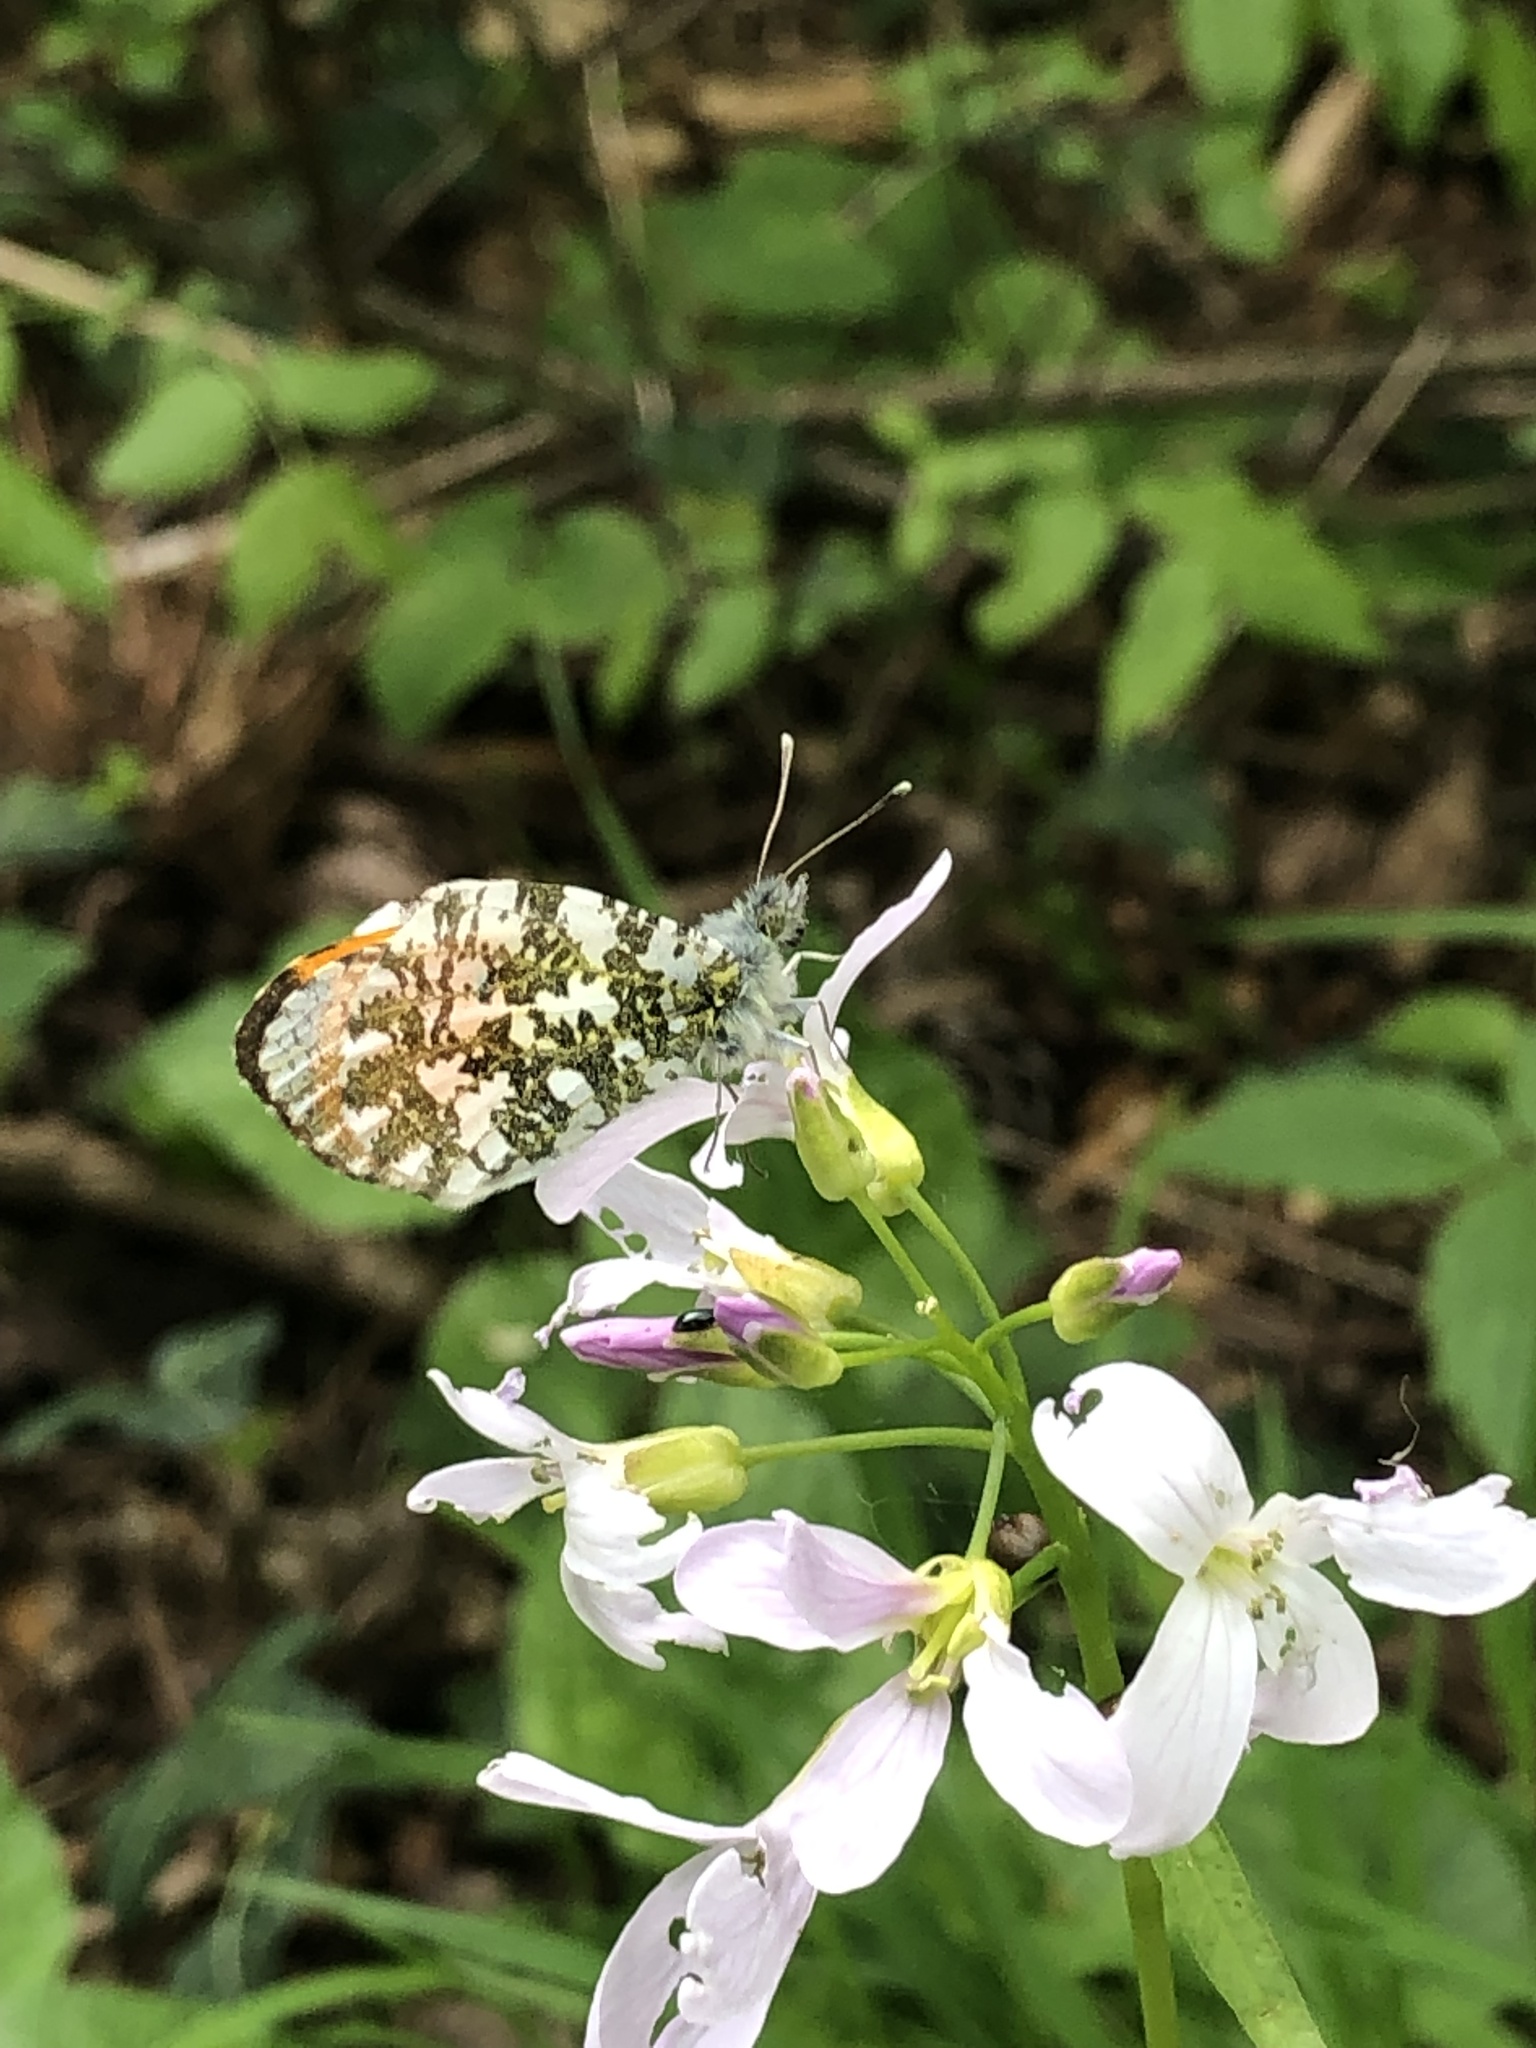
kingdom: Animalia
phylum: Arthropoda
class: Insecta
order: Lepidoptera
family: Pieridae
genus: Anthocharis
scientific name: Anthocharis cardamines
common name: Orange-tip
